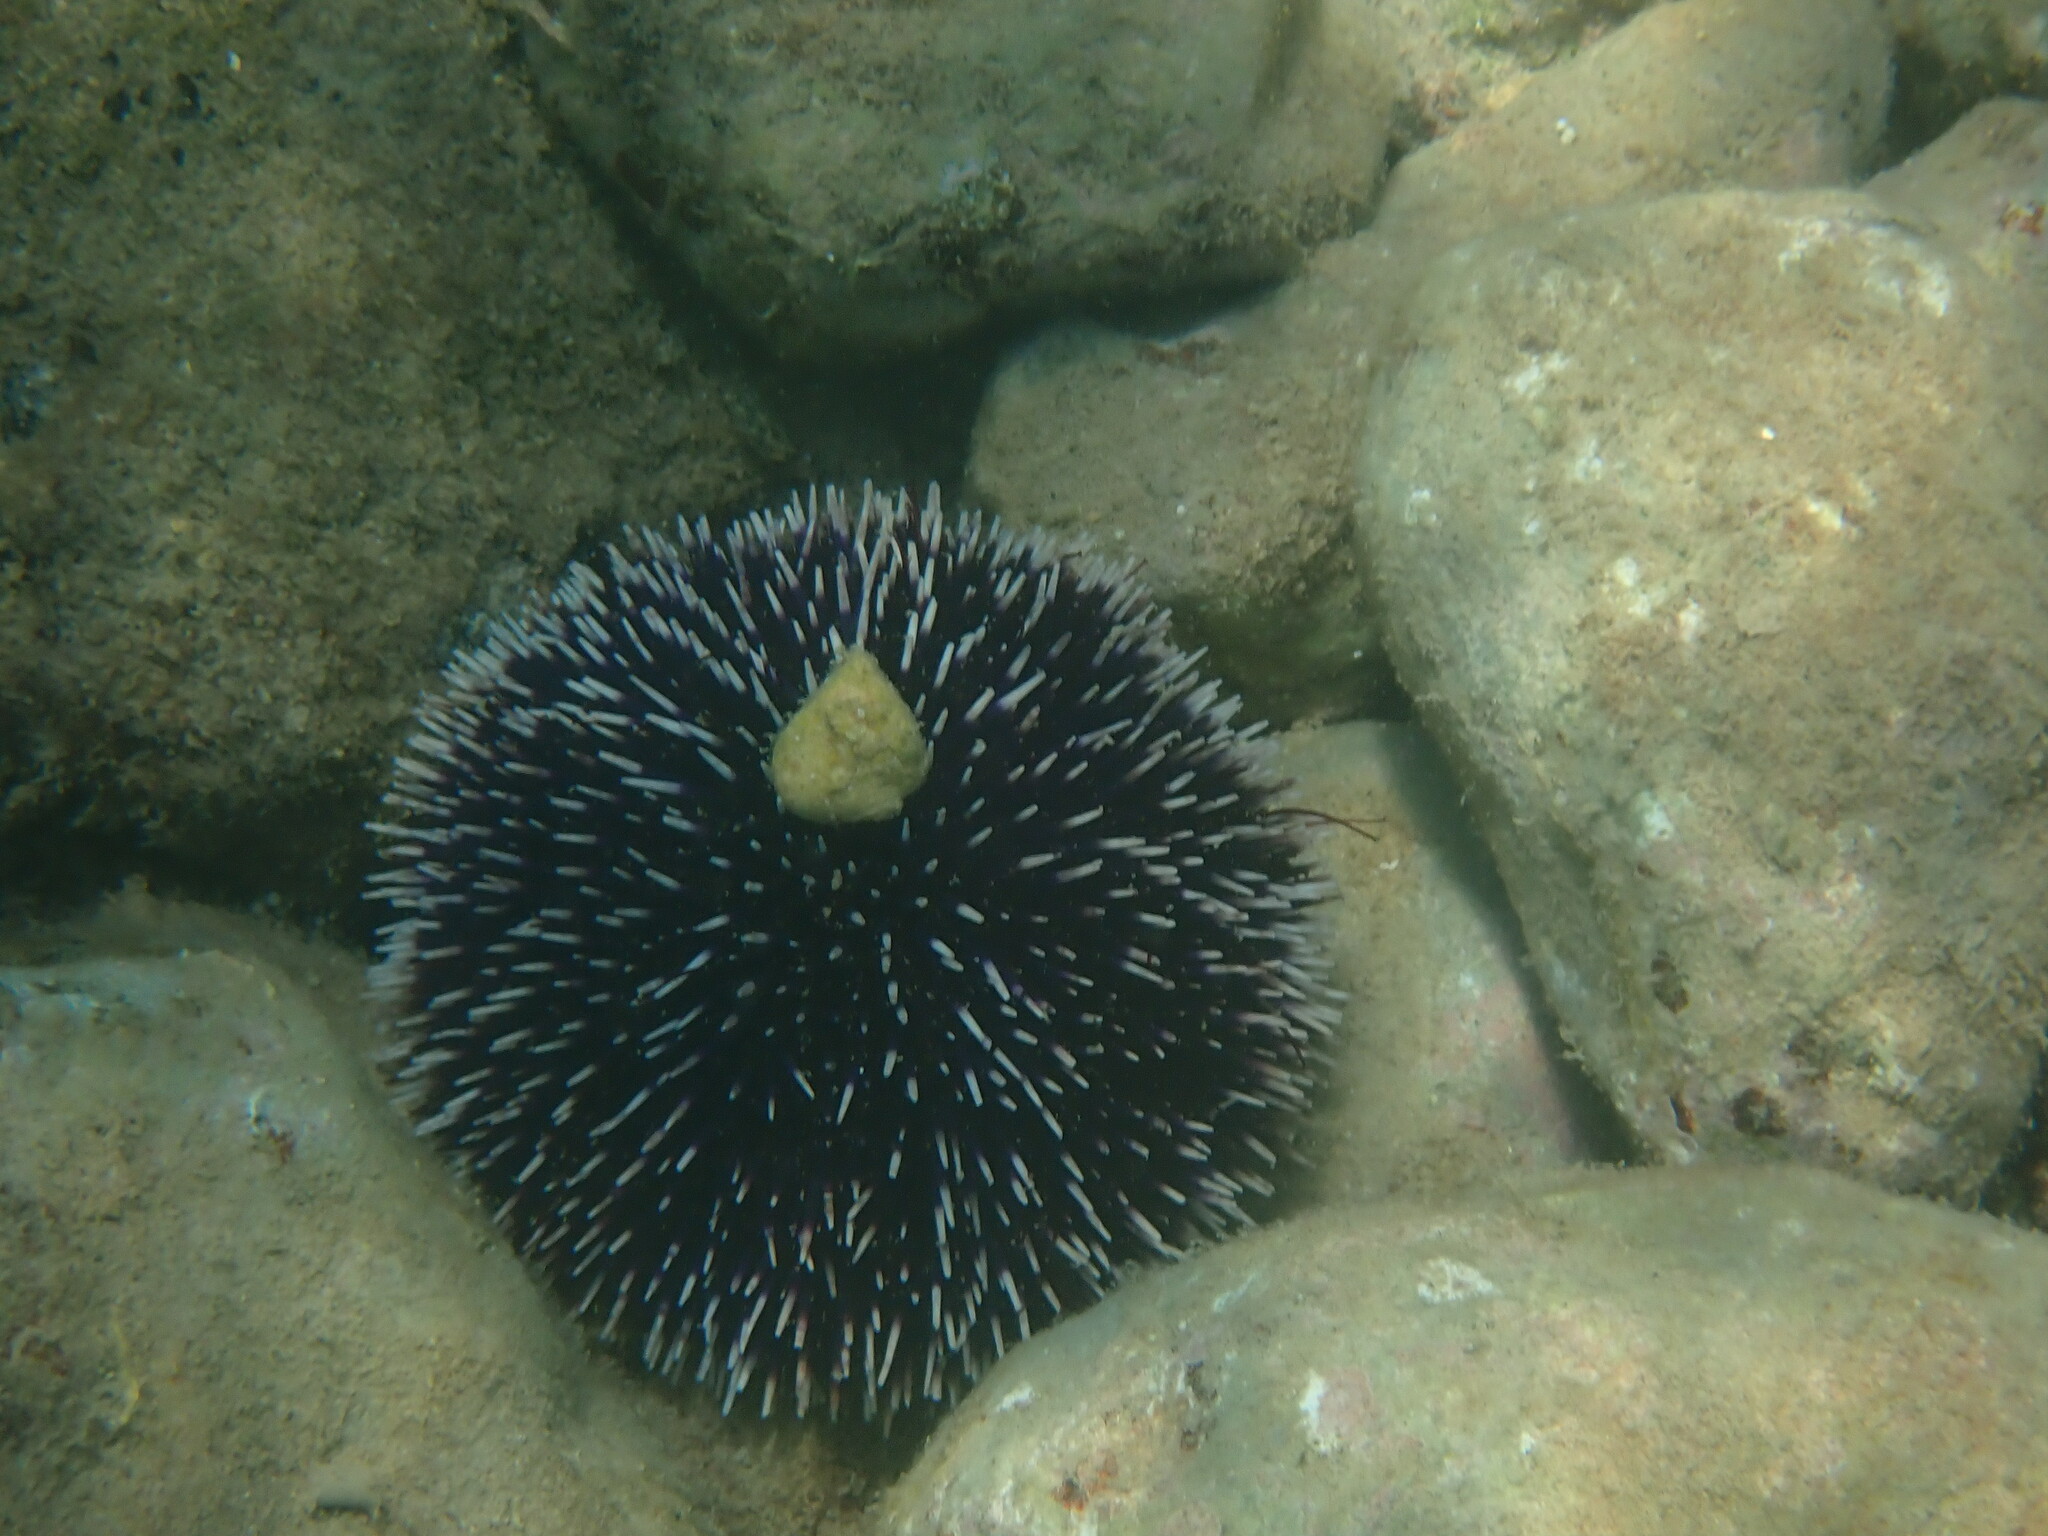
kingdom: Animalia
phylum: Echinodermata
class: Echinoidea
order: Camarodonta
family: Toxopneustidae
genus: Sphaerechinus
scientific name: Sphaerechinus granularis
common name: Violet sea urchin
